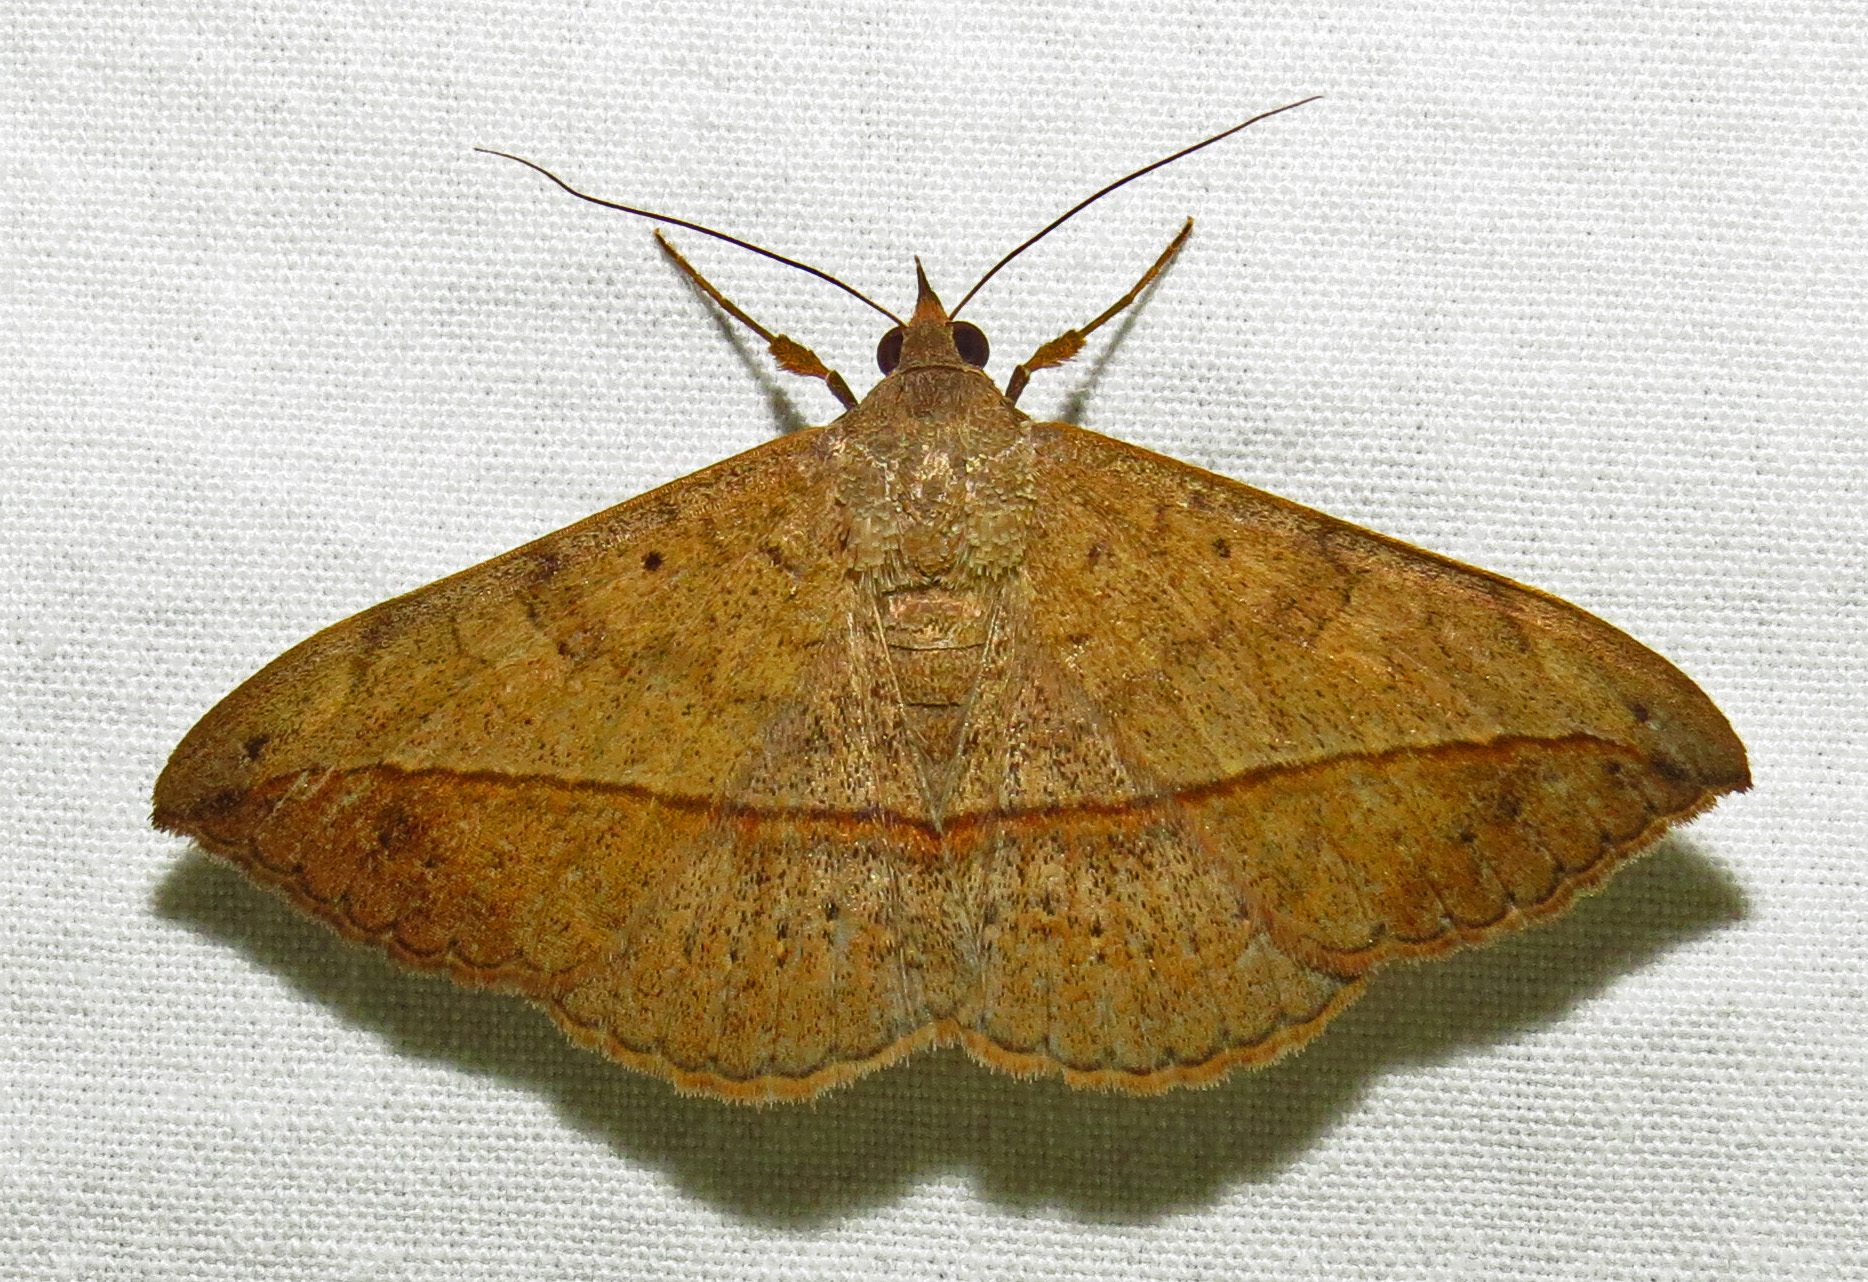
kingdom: Animalia
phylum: Arthropoda
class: Insecta
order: Lepidoptera
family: Erebidae
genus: Anticarsia
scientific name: Anticarsia gemmatalis
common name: Cutworm moth
